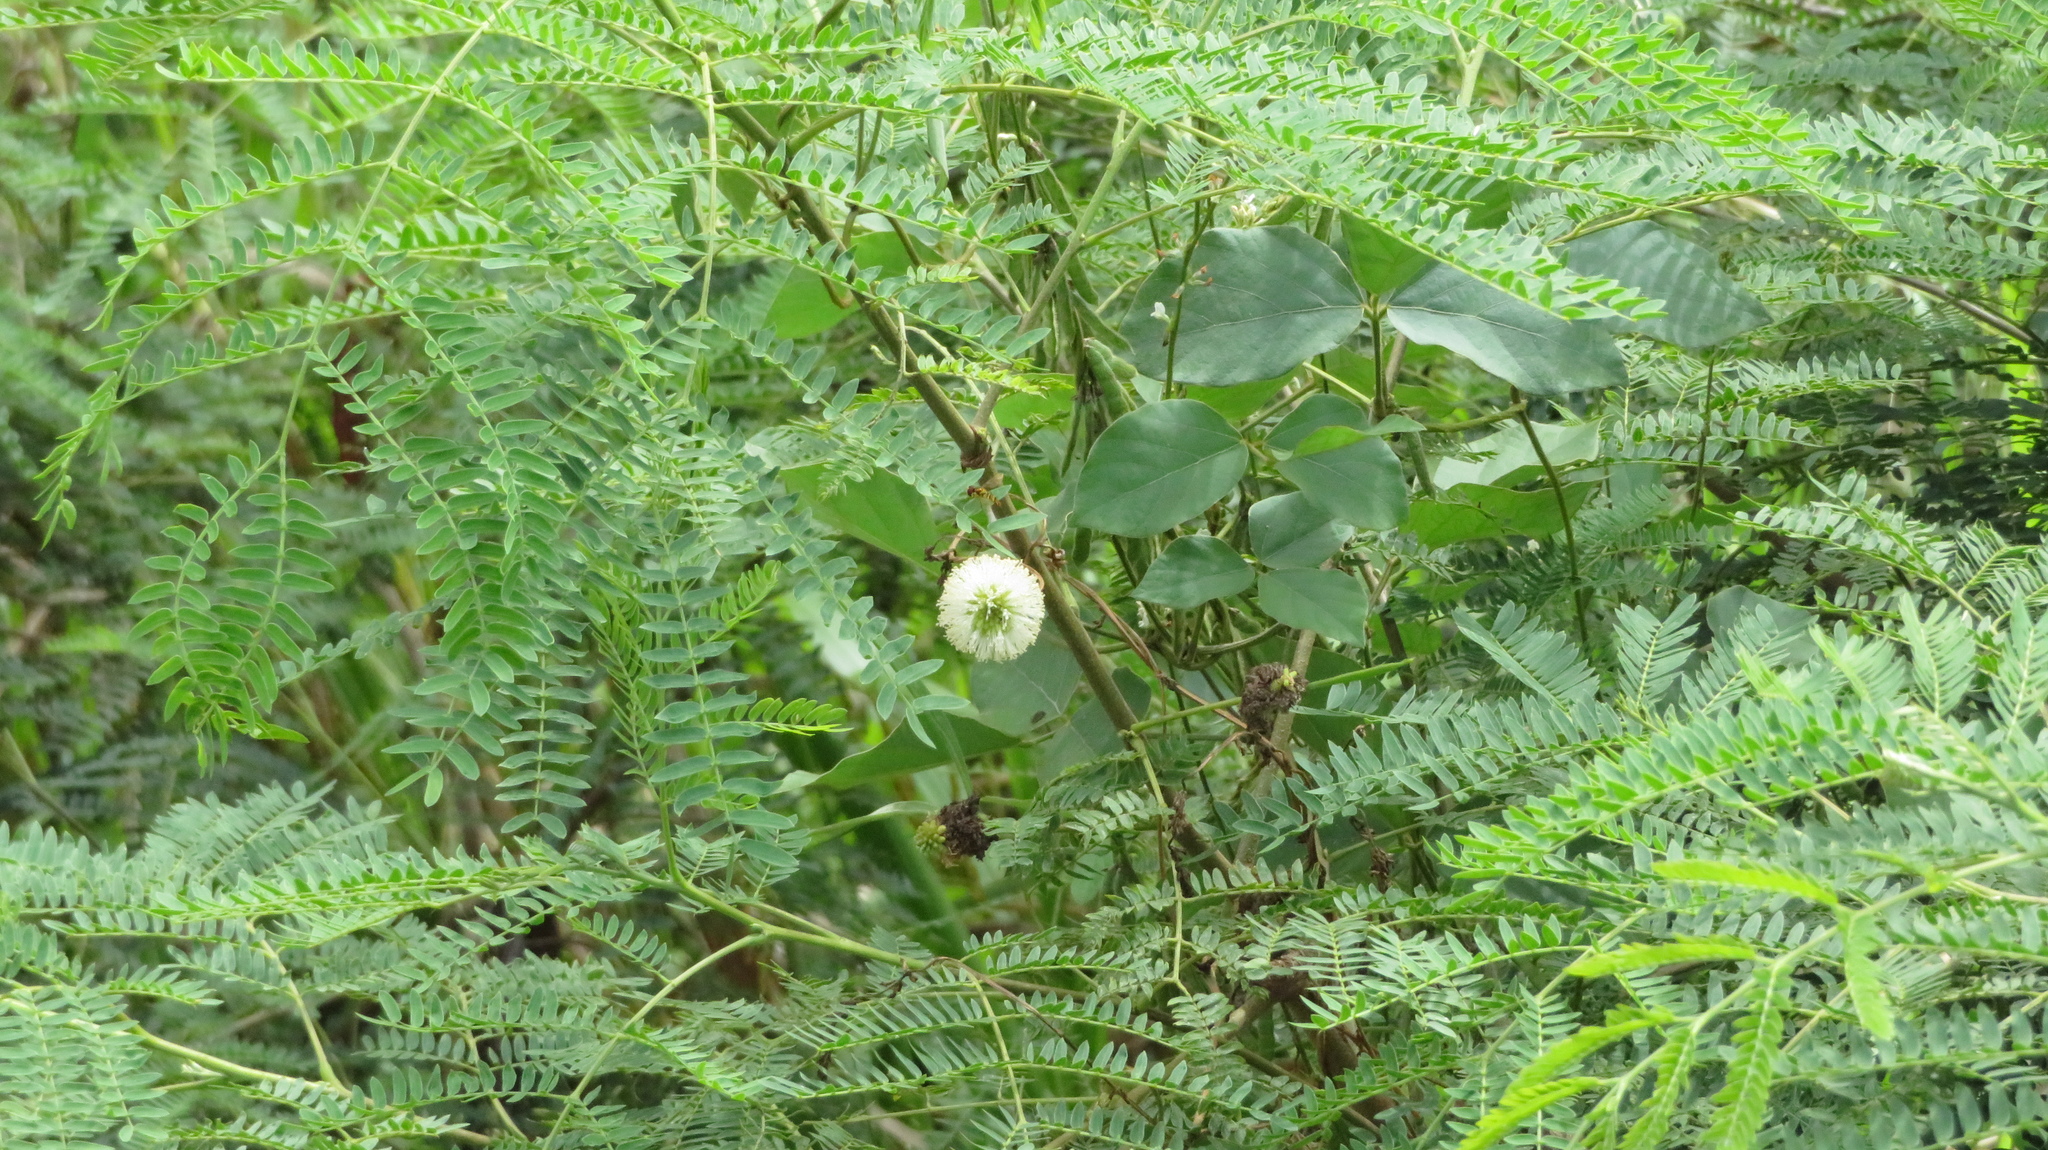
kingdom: Plantae
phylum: Tracheophyta
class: Magnoliopsida
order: Fabales
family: Fabaceae
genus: Leucaena
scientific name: Leucaena leucocephala
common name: White leadtree
